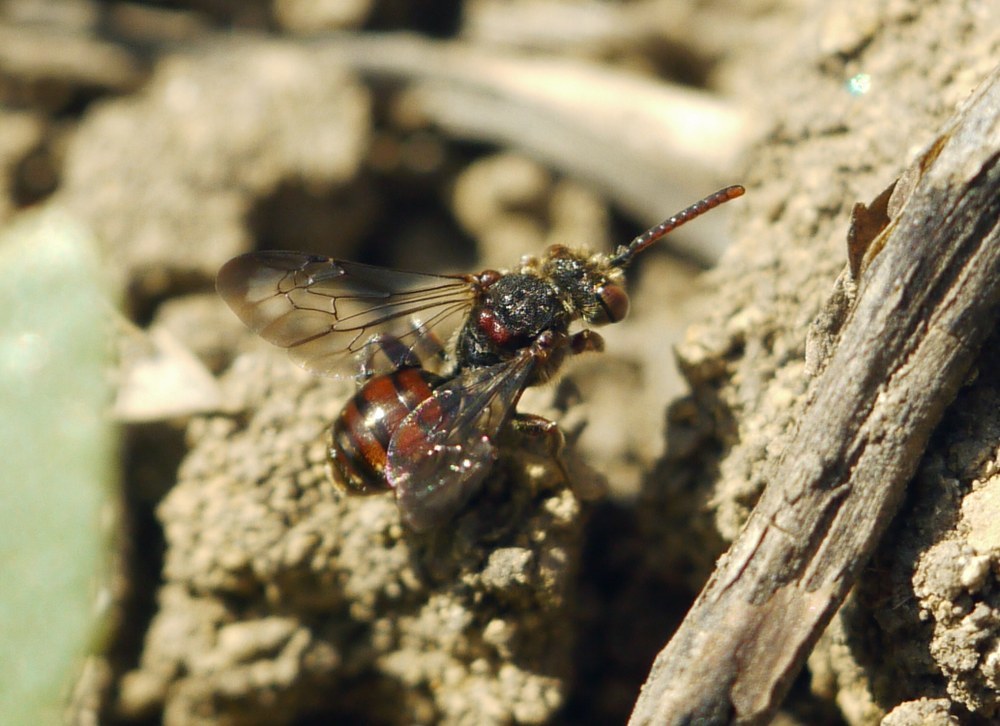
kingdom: Animalia
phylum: Arthropoda
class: Insecta
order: Hymenoptera
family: Apidae
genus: Nomada
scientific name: Nomada
